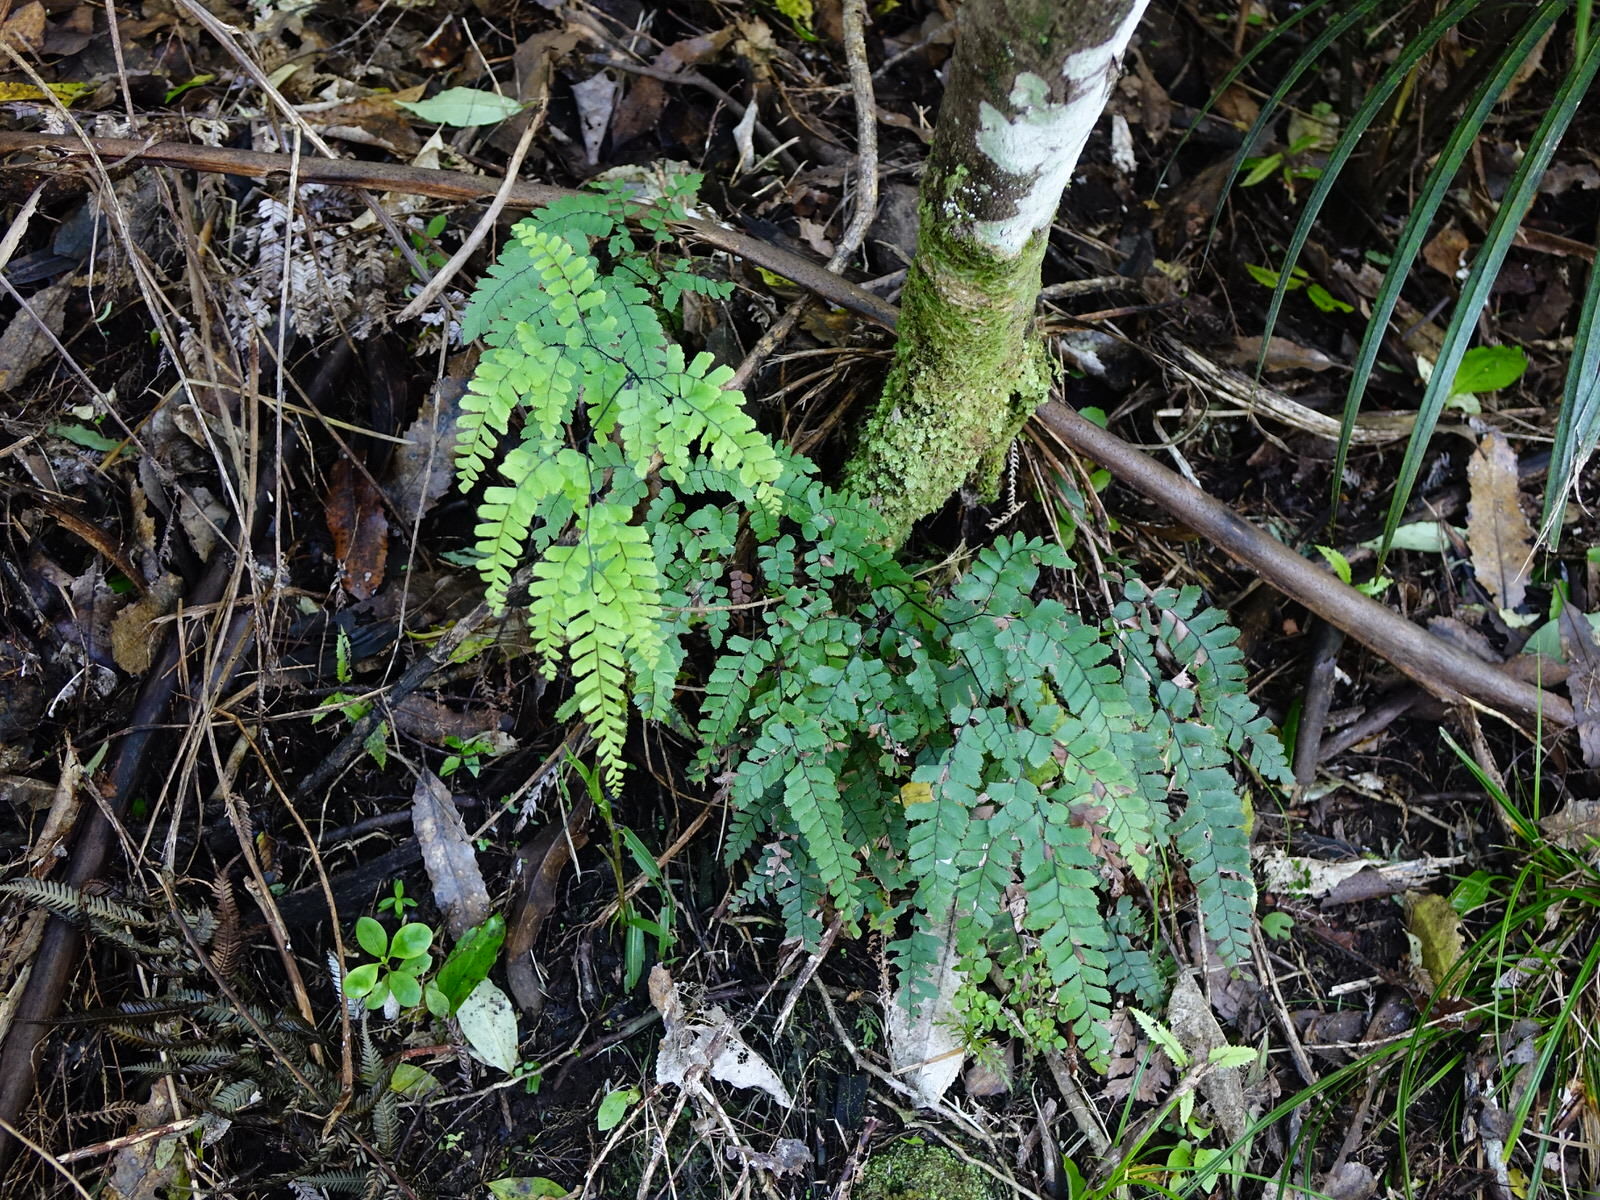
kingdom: Plantae
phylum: Tracheophyta
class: Polypodiopsida
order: Polypodiales
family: Pteridaceae
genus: Adiantum
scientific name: Adiantum cunninghamii
